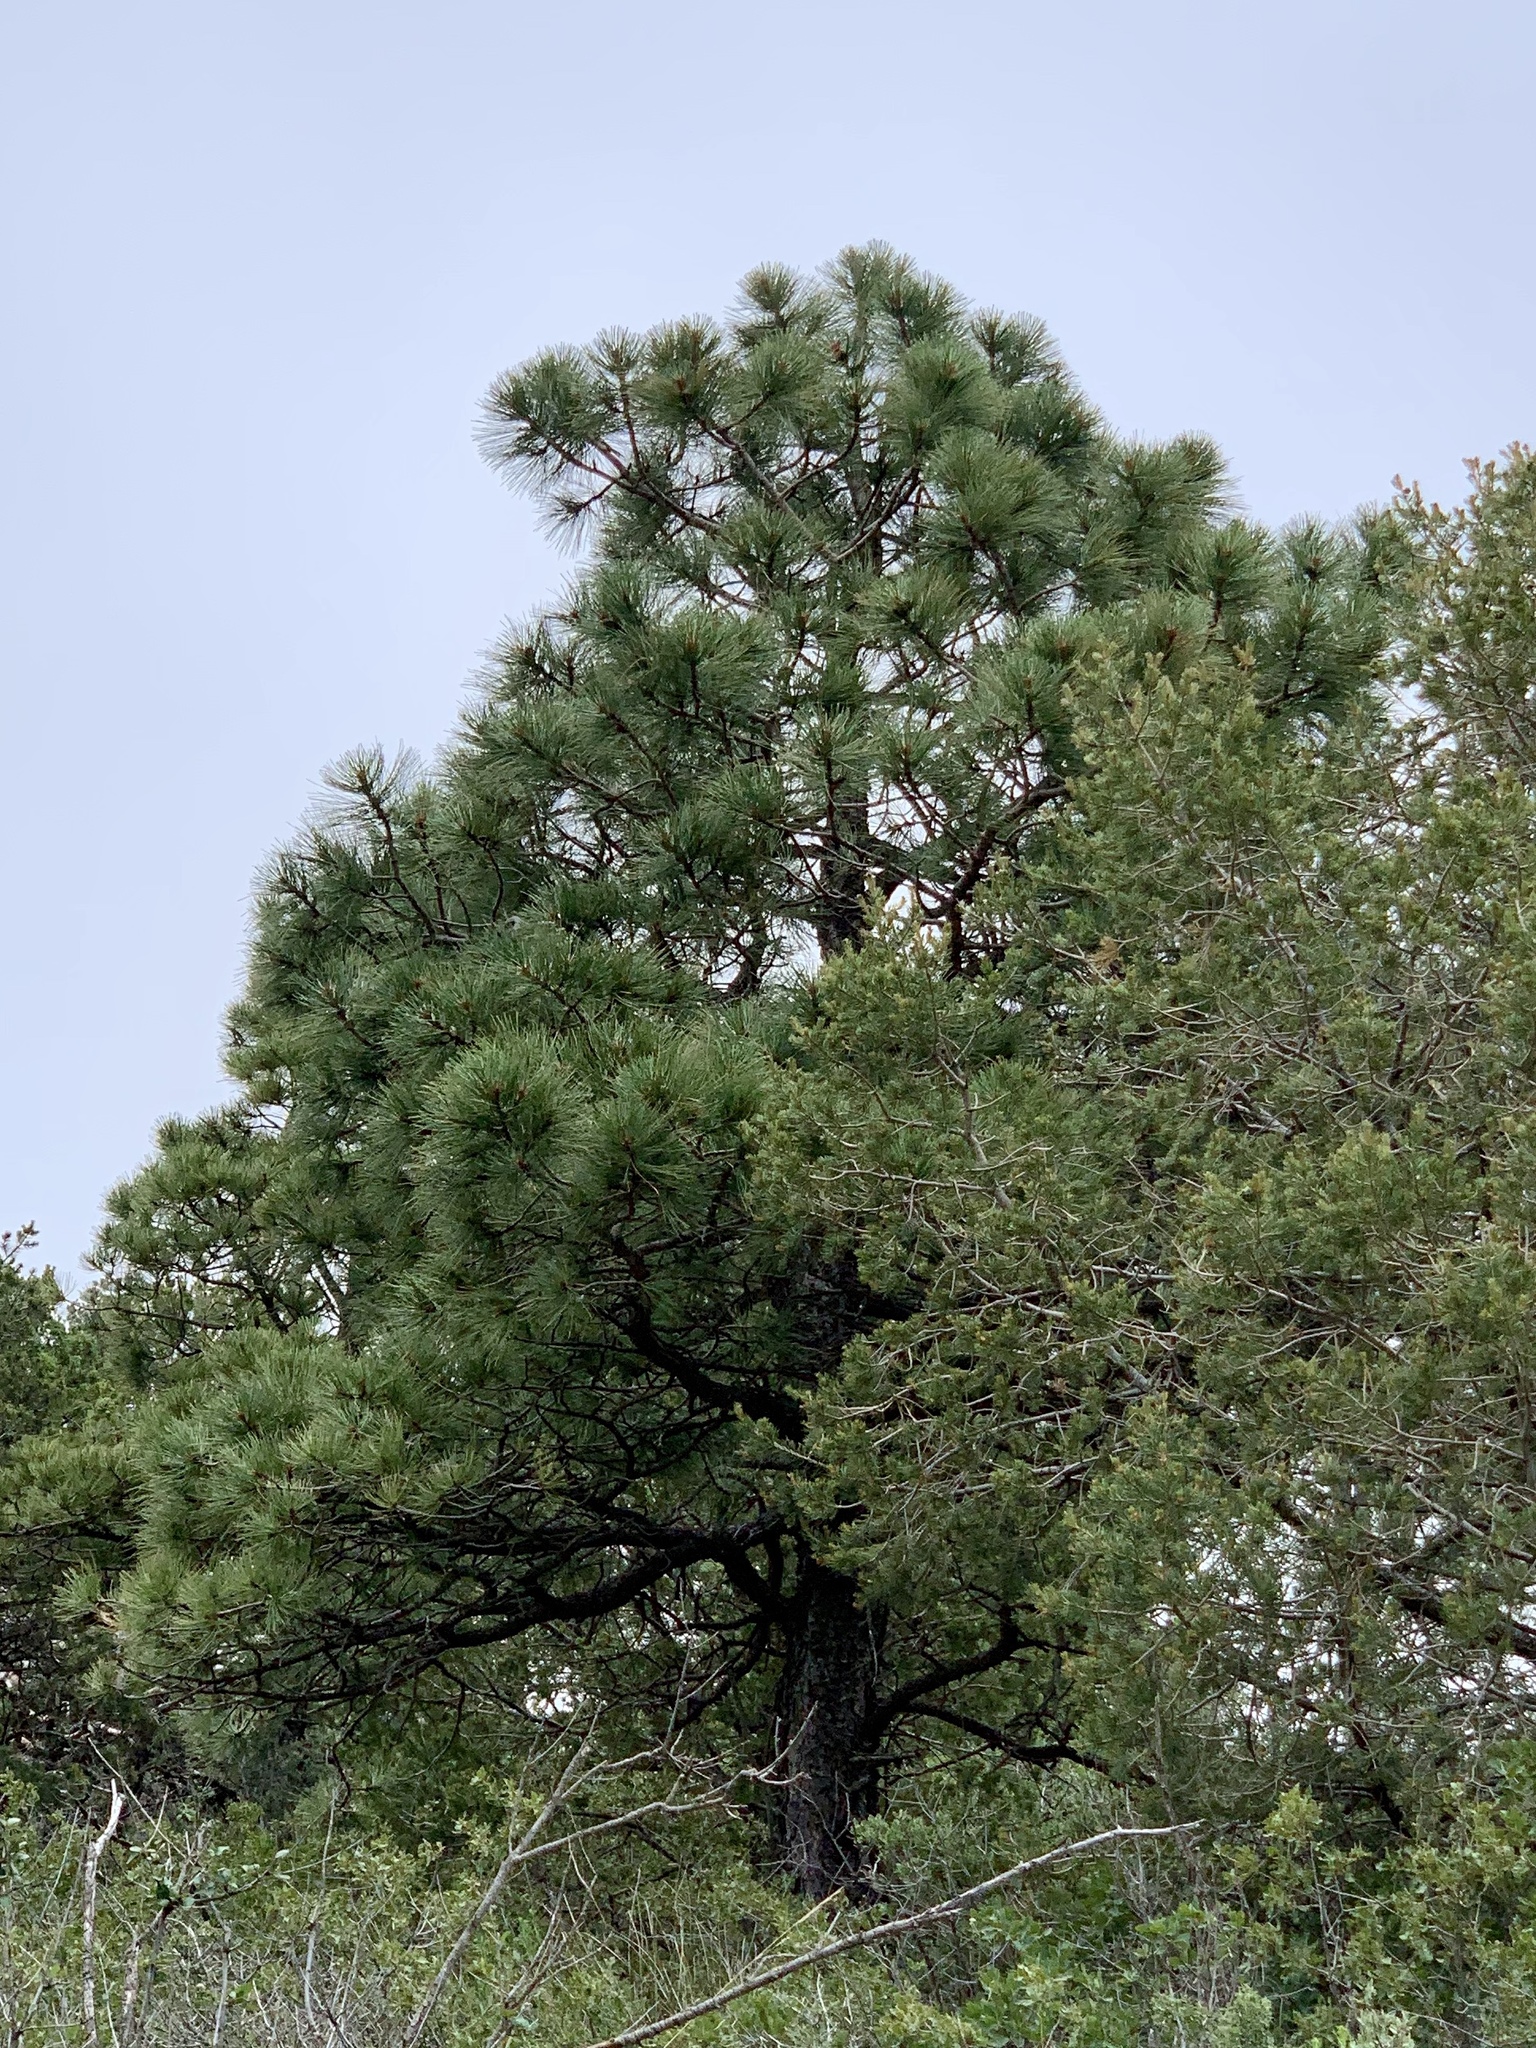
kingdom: Plantae
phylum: Tracheophyta
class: Pinopsida
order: Pinales
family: Pinaceae
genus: Pinus
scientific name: Pinus ponderosa
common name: Western yellow-pine
